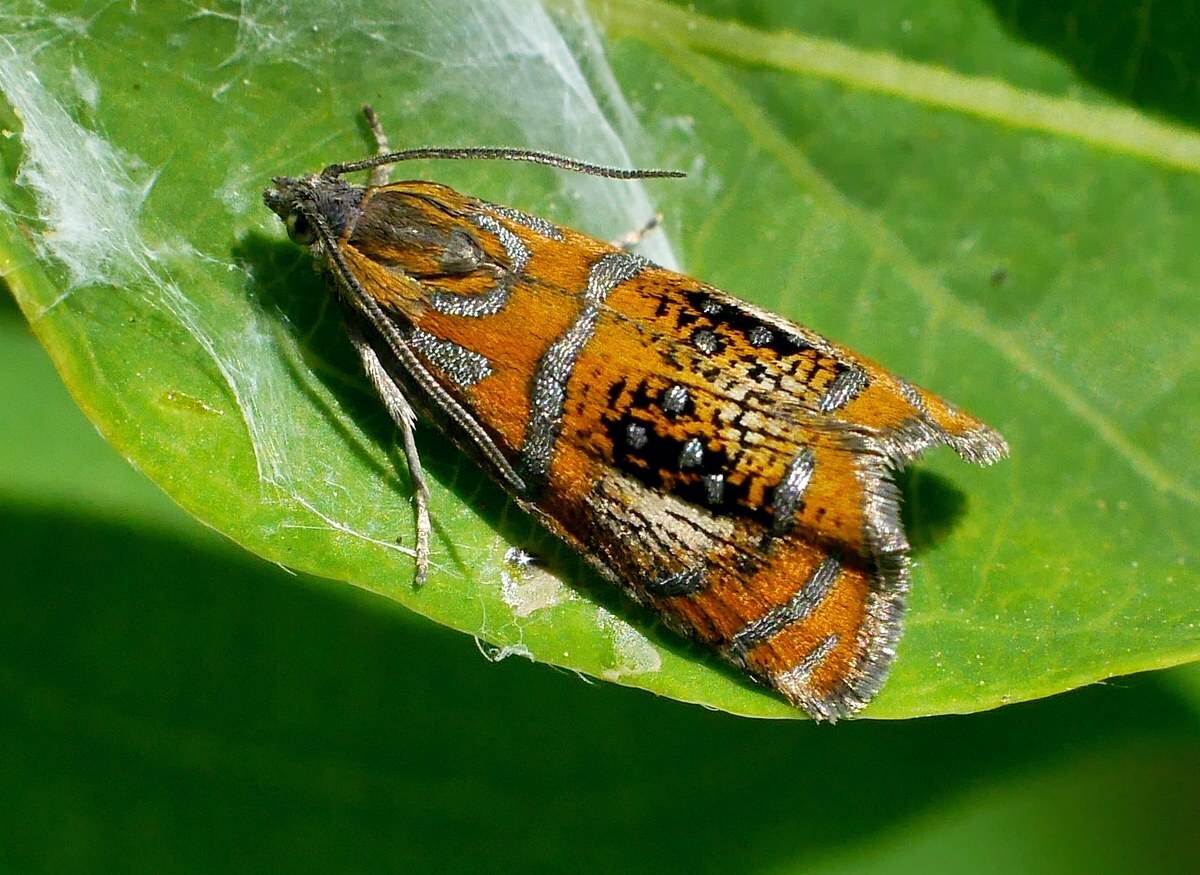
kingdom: Animalia
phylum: Arthropoda
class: Insecta
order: Lepidoptera
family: Tortricidae
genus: Olethreutes
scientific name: Olethreutes arcuella
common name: Arched marble
